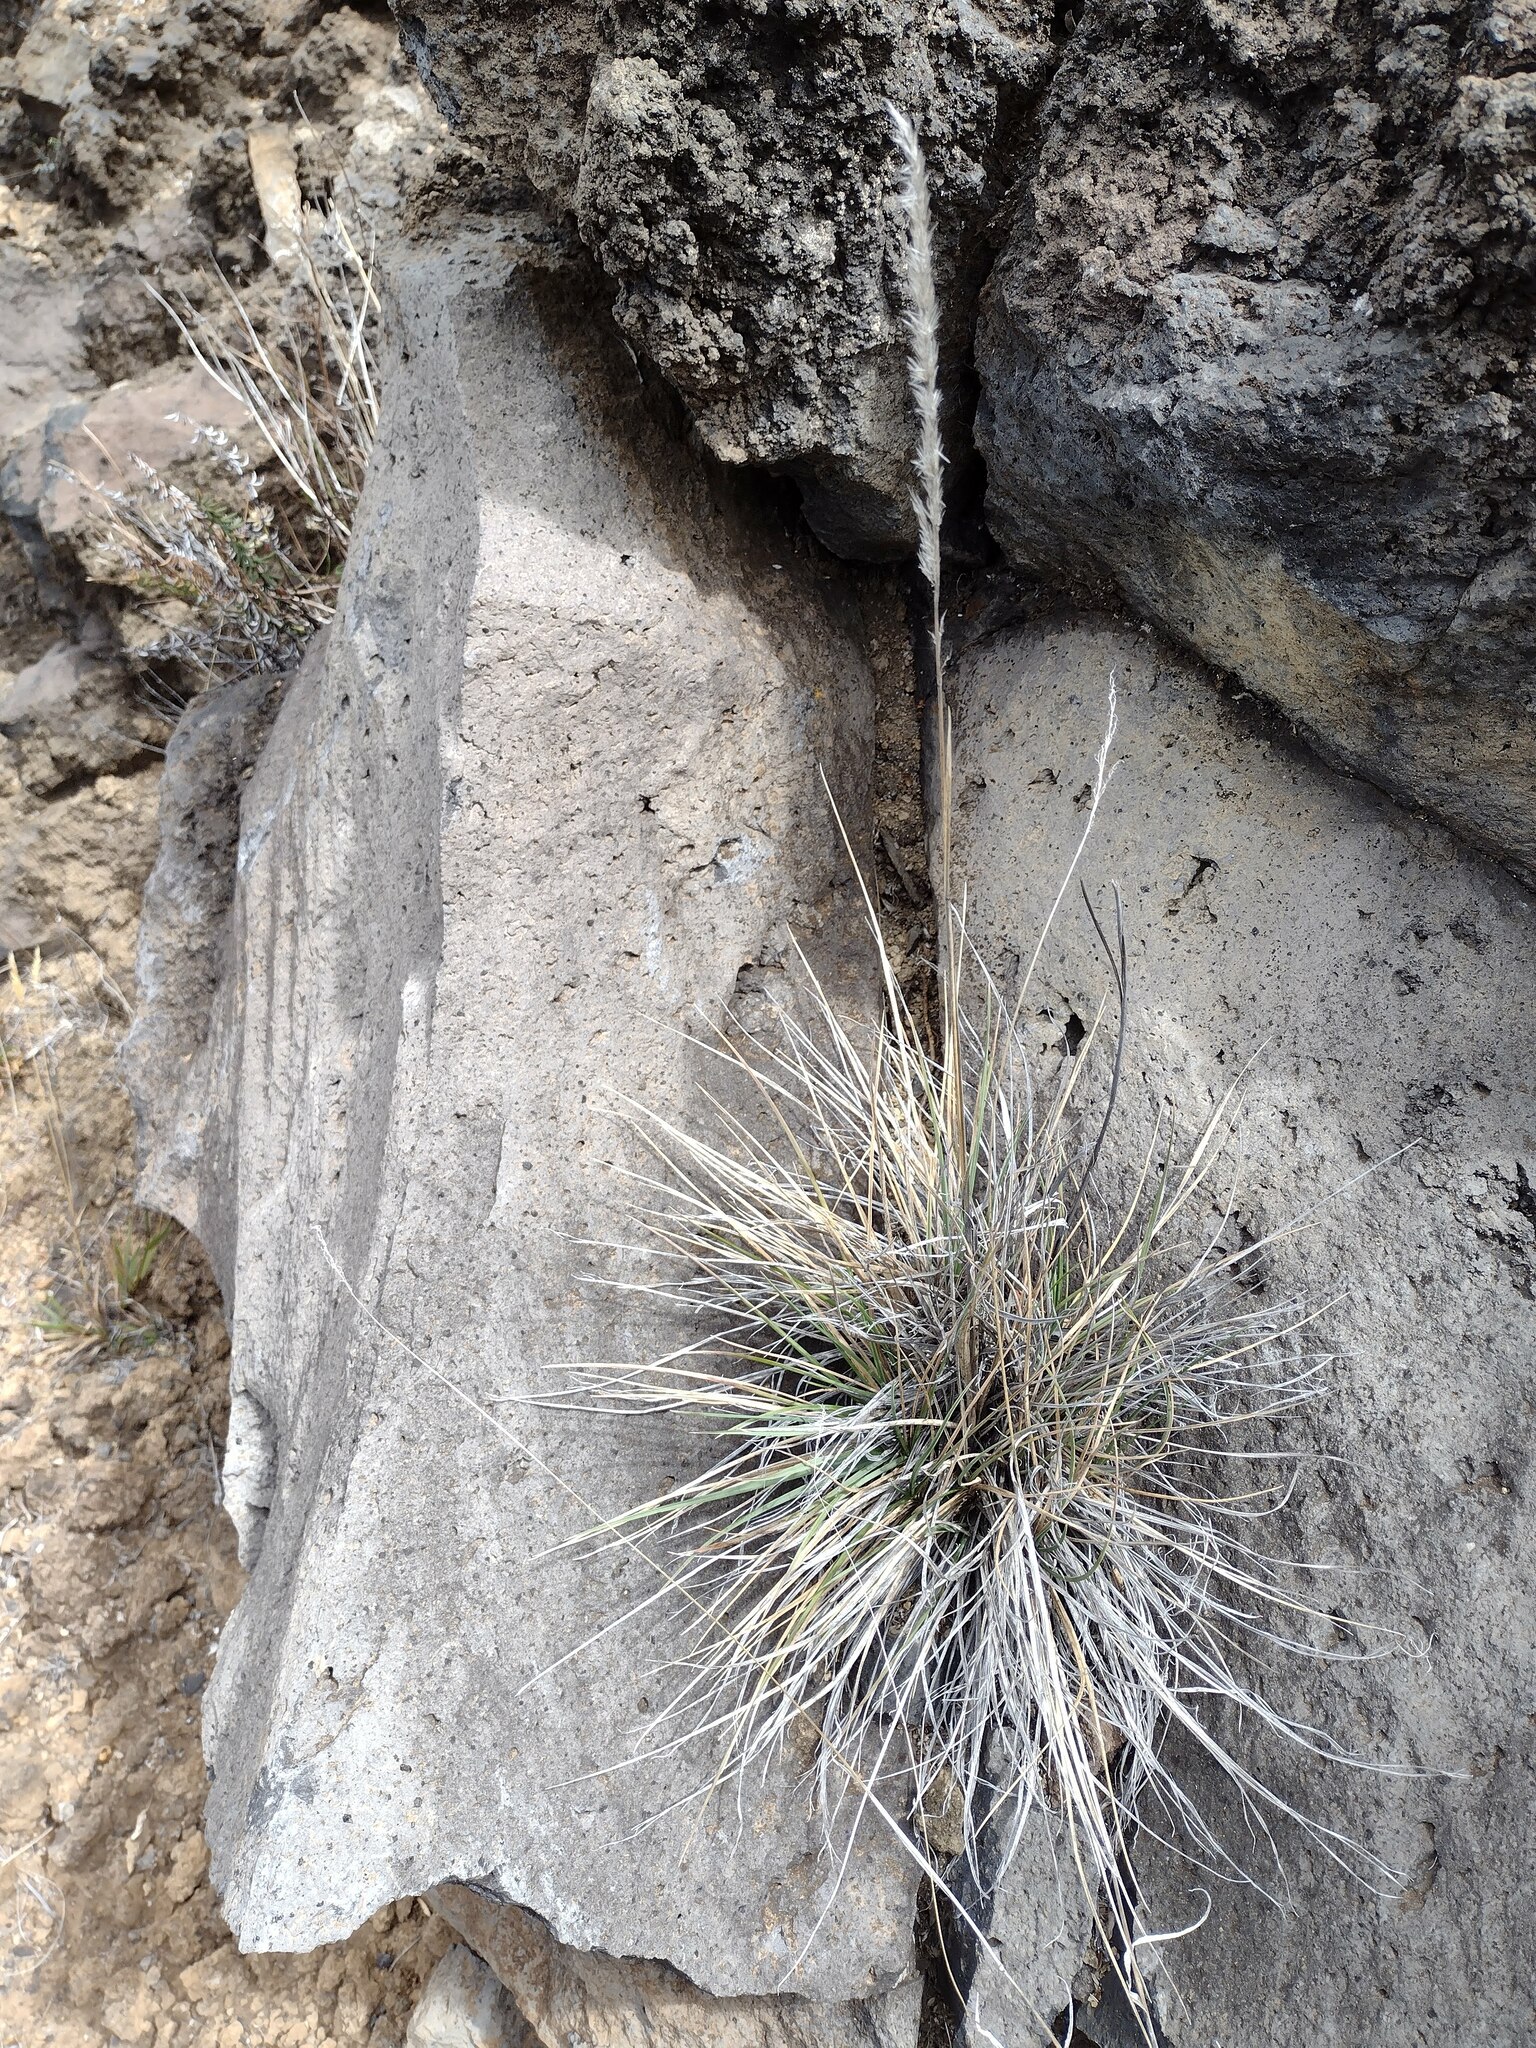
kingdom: Plantae
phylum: Tracheophyta
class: Liliopsida
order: Poales
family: Poaceae
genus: Trisetum
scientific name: Trisetum glomeratum
